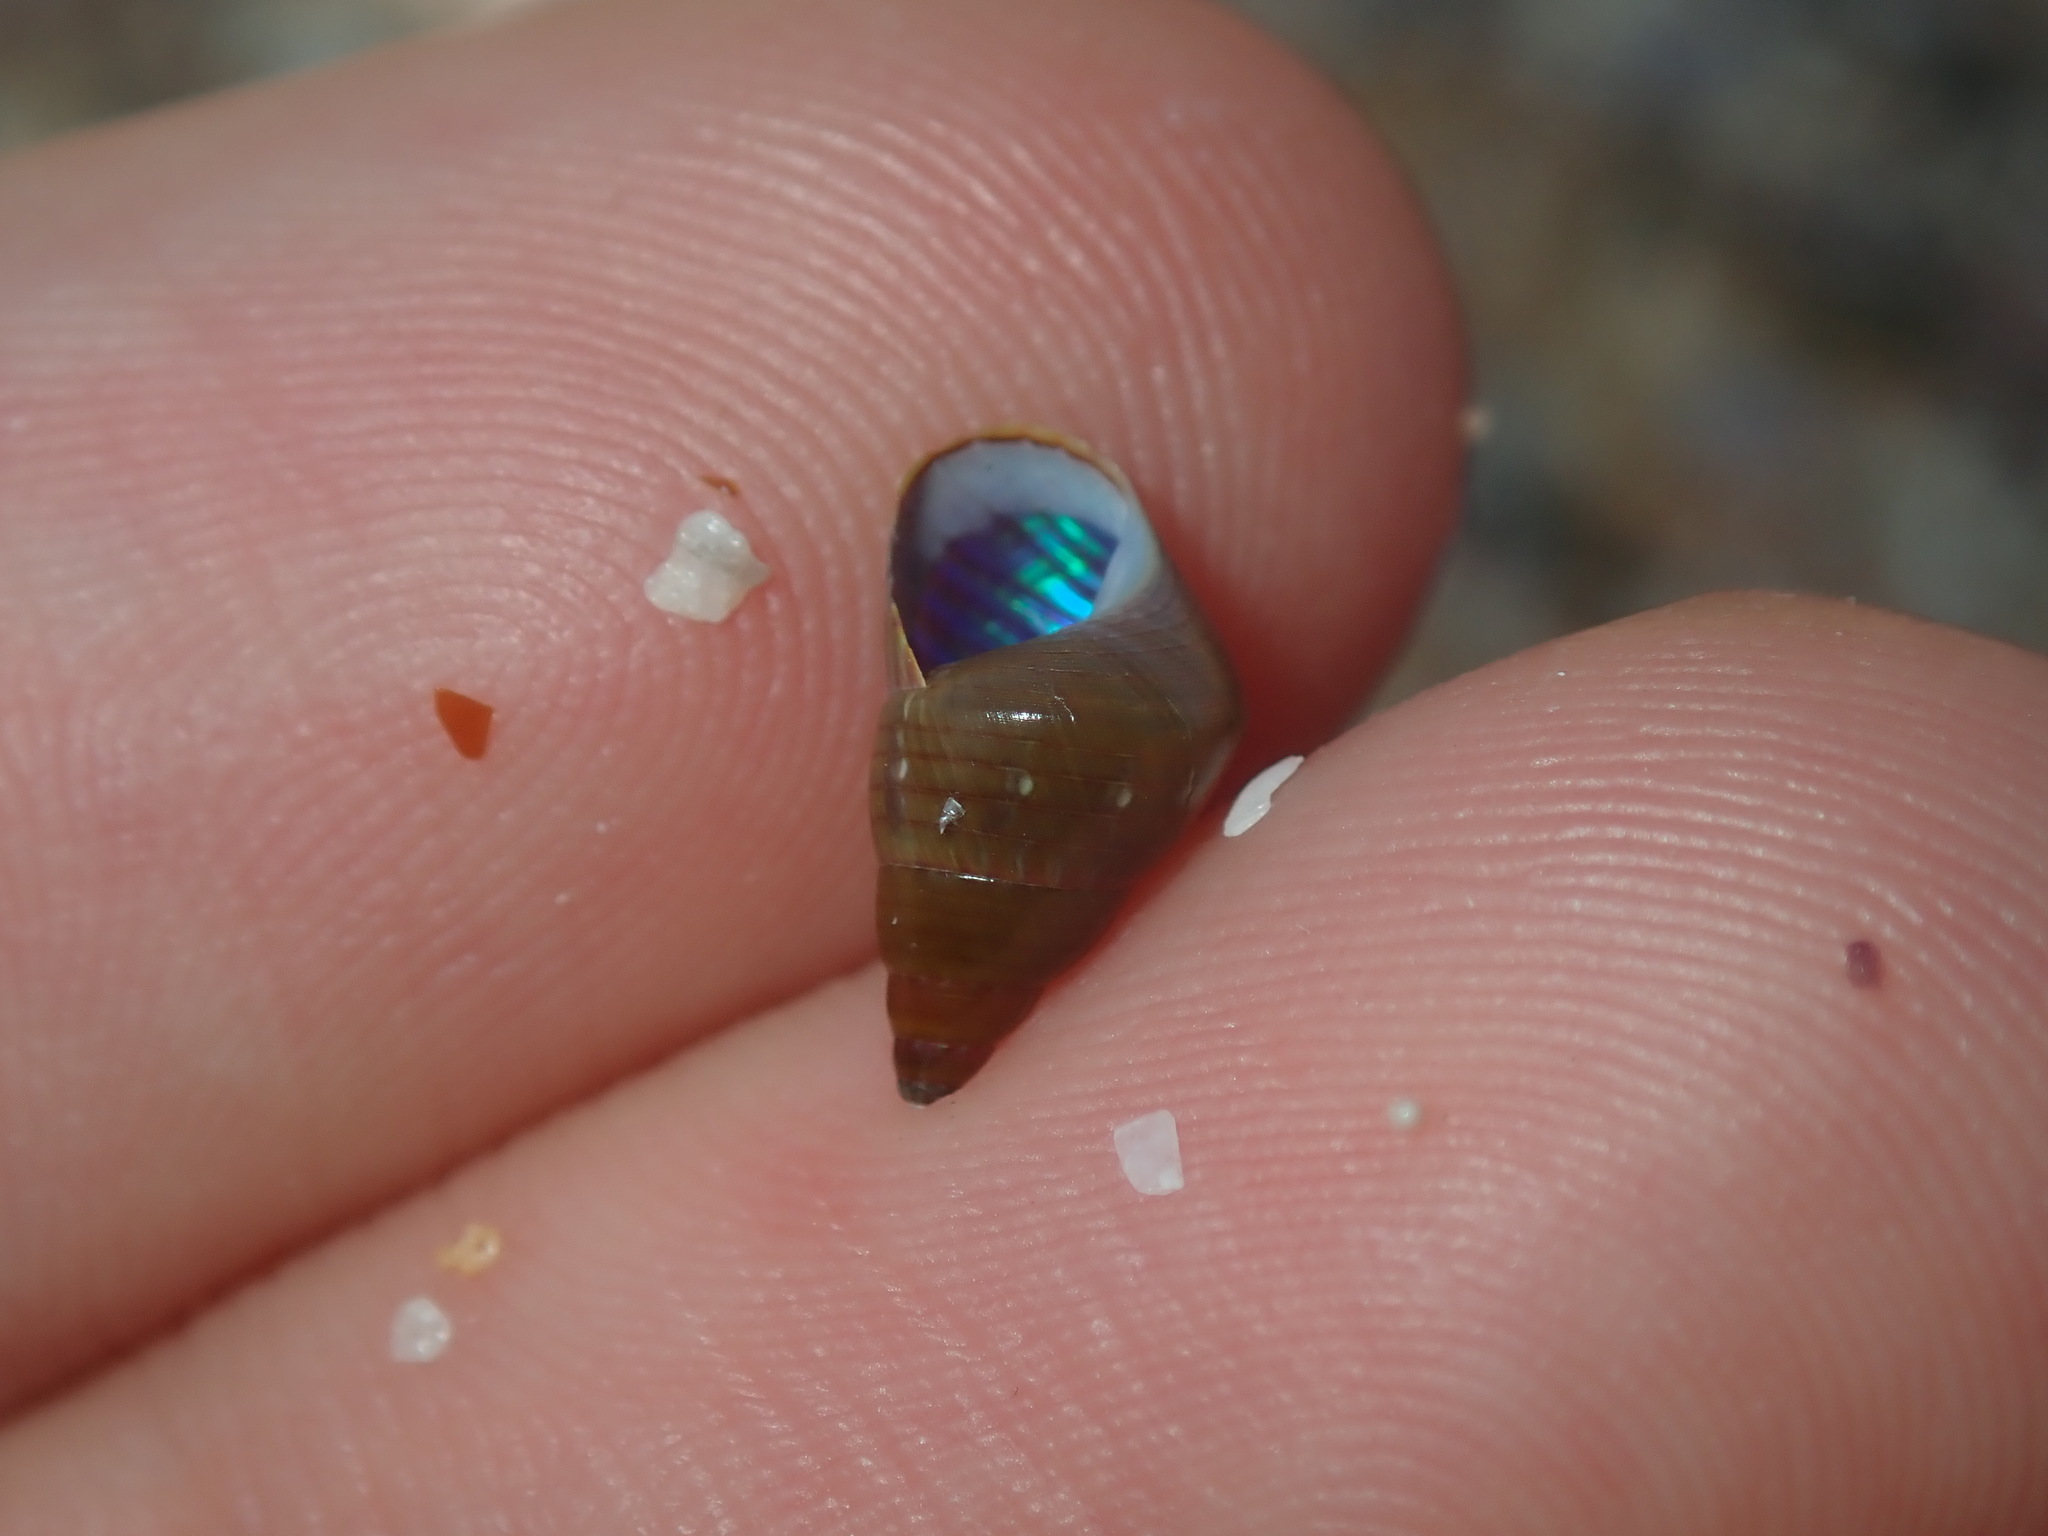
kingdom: Animalia
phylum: Mollusca
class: Gastropoda
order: Trochida
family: Trochidae
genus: Phasianotrochus
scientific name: Phasianotrochus eximius
